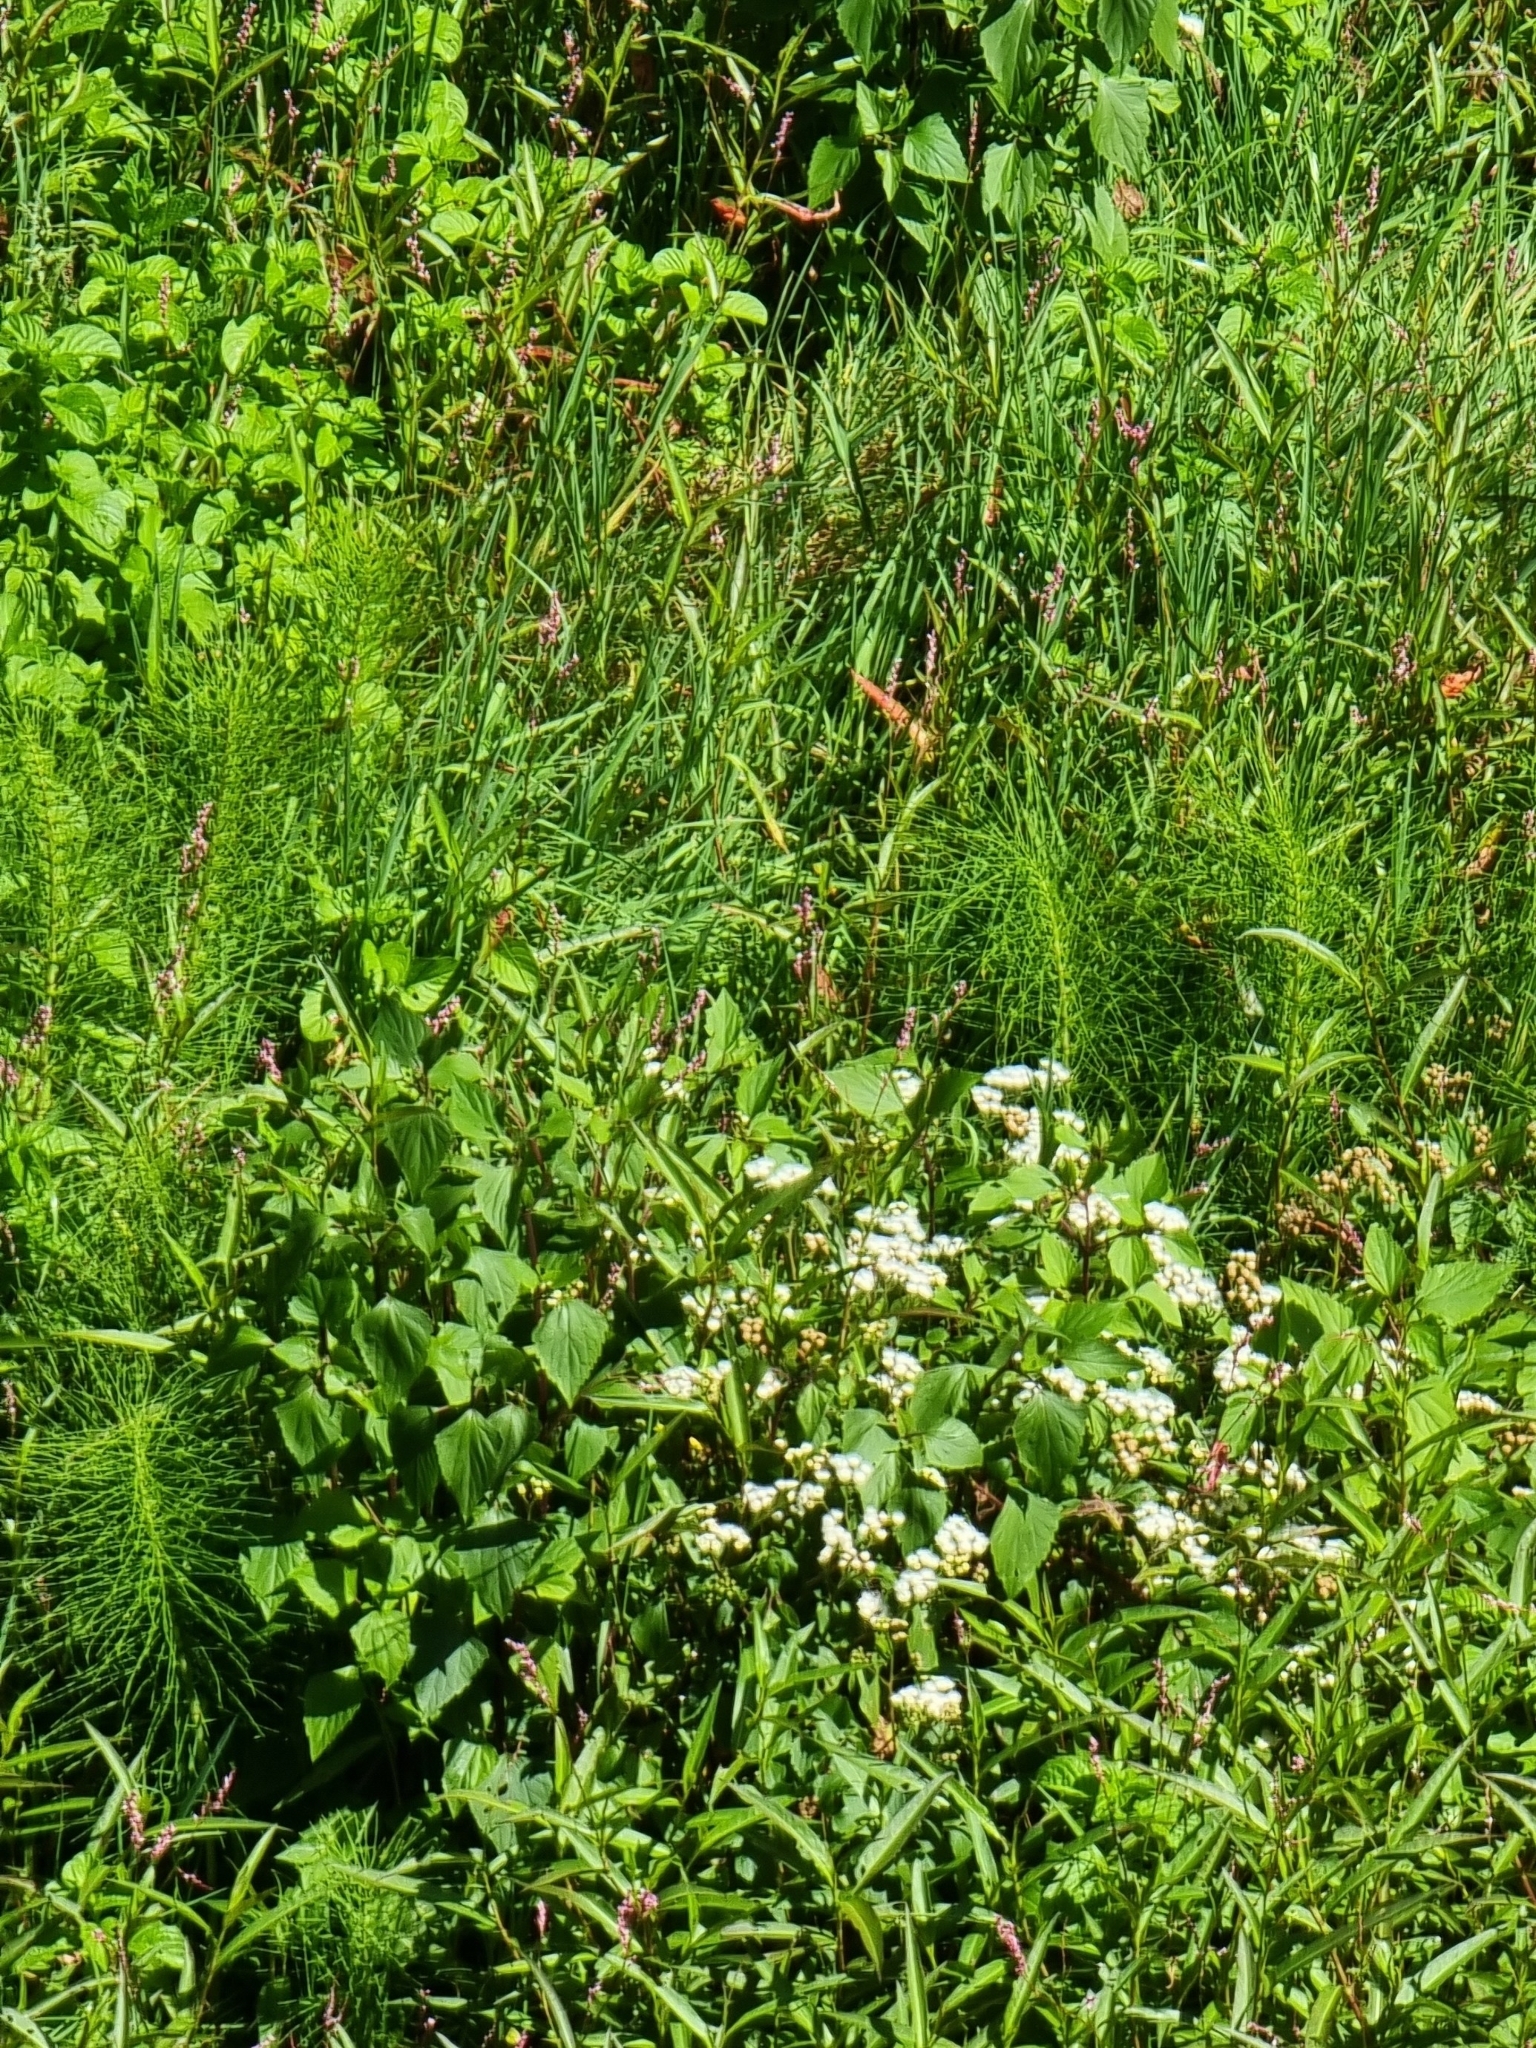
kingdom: Plantae
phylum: Tracheophyta
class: Polypodiopsida
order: Equisetales
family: Equisetaceae
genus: Equisetum
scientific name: Equisetum telmateia
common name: Great horsetail
